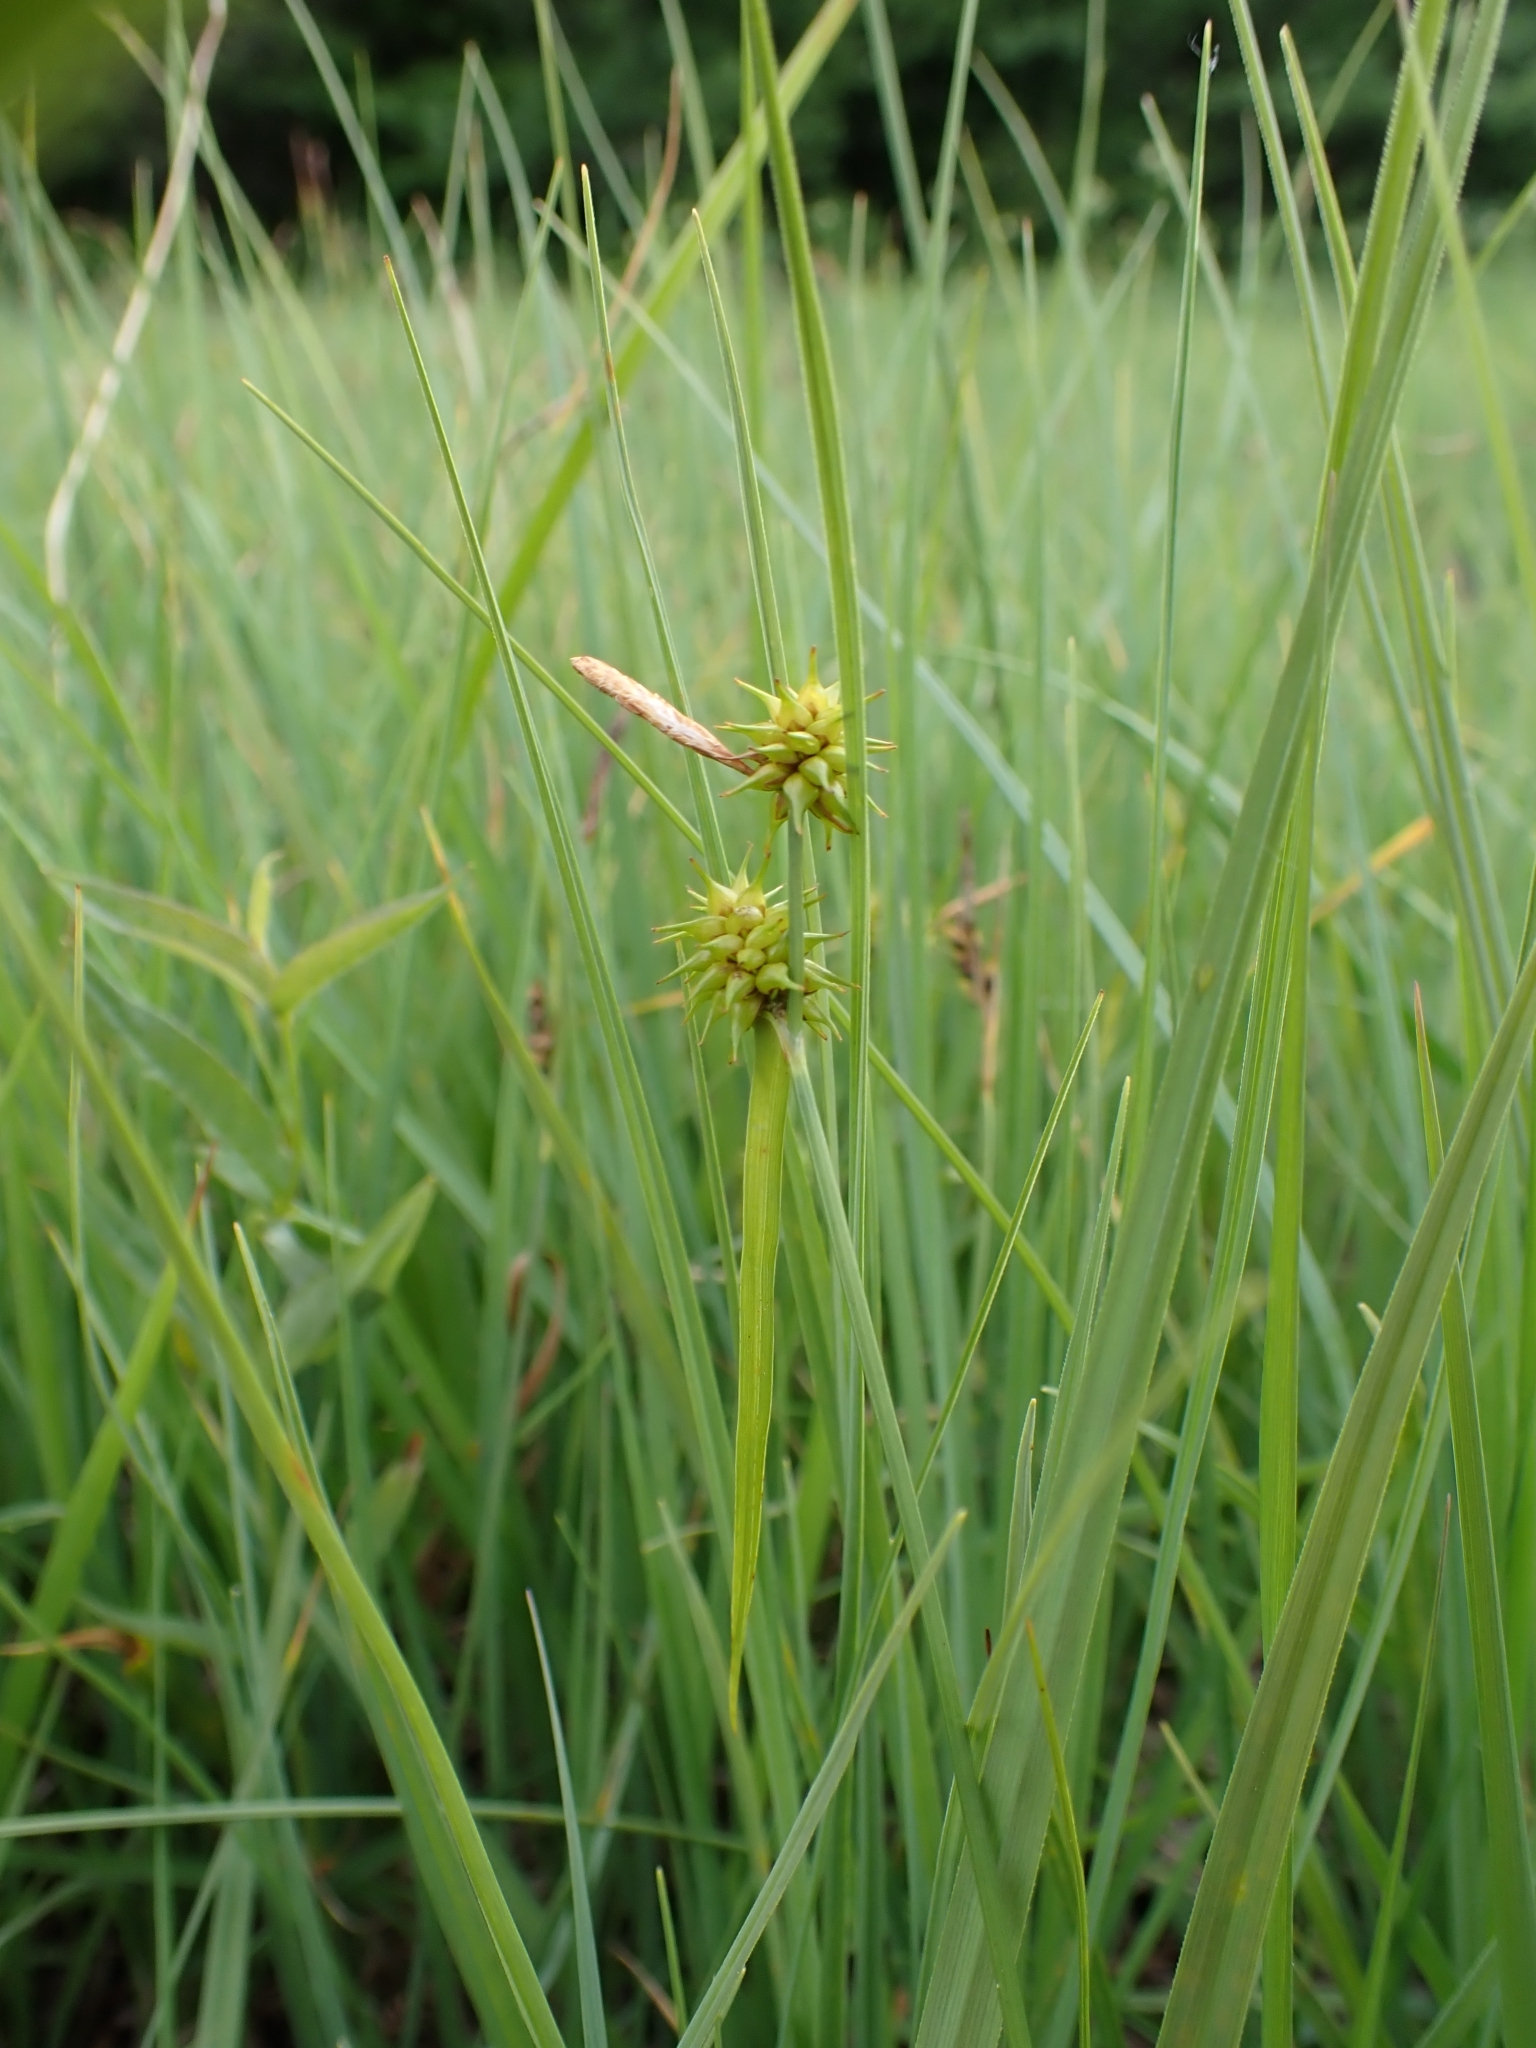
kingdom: Plantae
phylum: Tracheophyta
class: Liliopsida
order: Poales
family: Cyperaceae
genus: Carex
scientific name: Carex flava
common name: Large yellow-sedge
